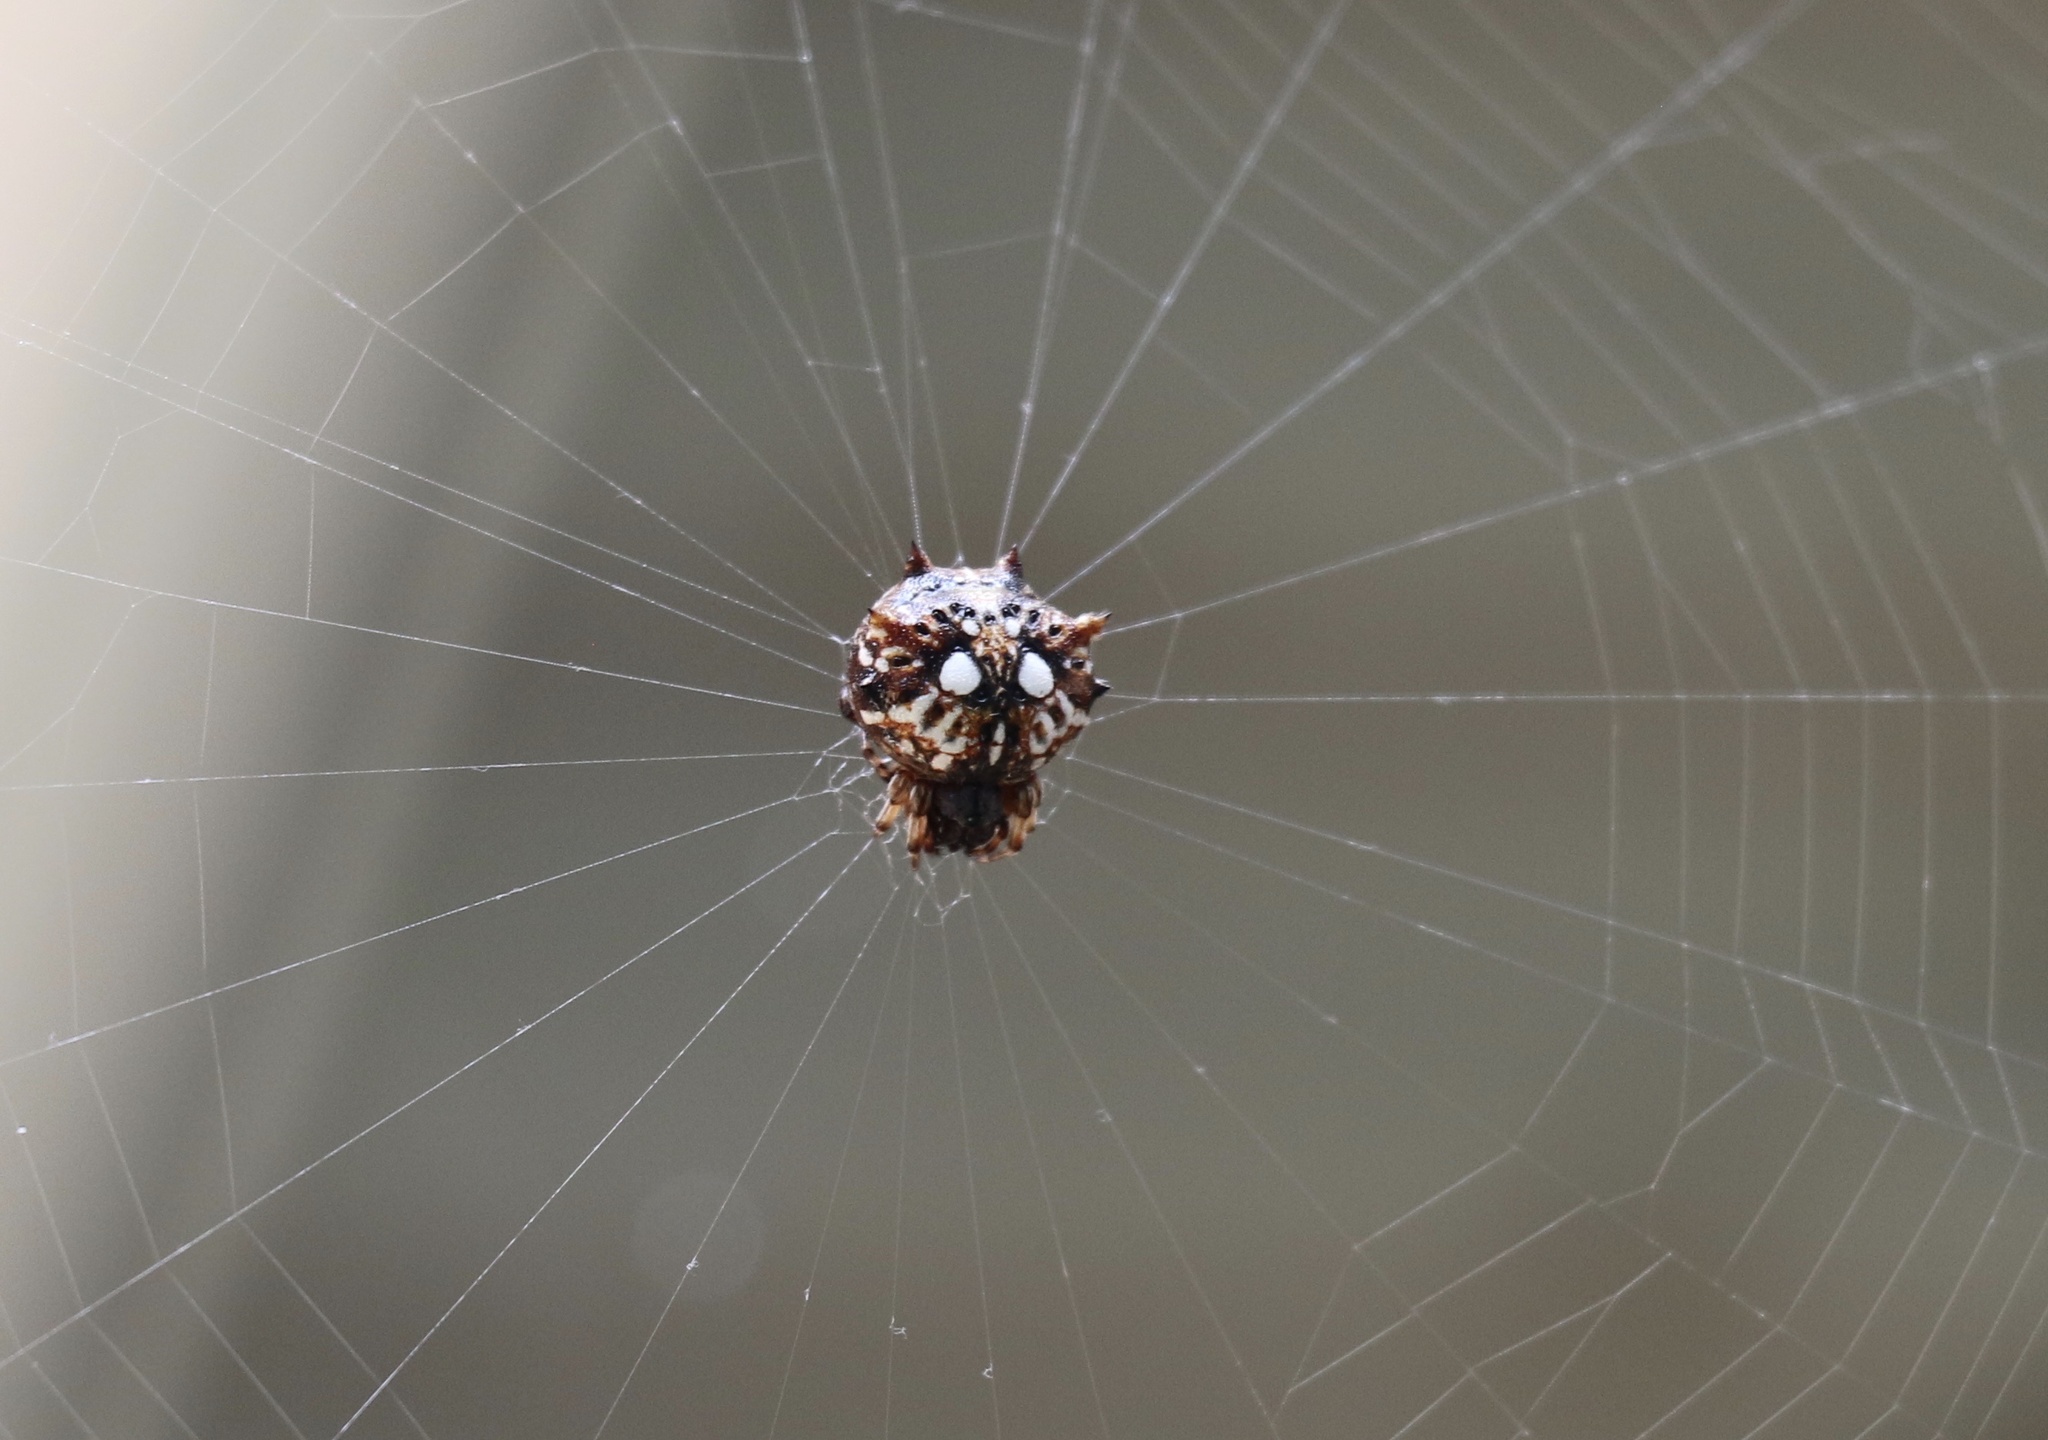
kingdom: Animalia
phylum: Arthropoda
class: Arachnida
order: Araneae
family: Araneidae
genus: Thelacantha
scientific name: Thelacantha brevispina
